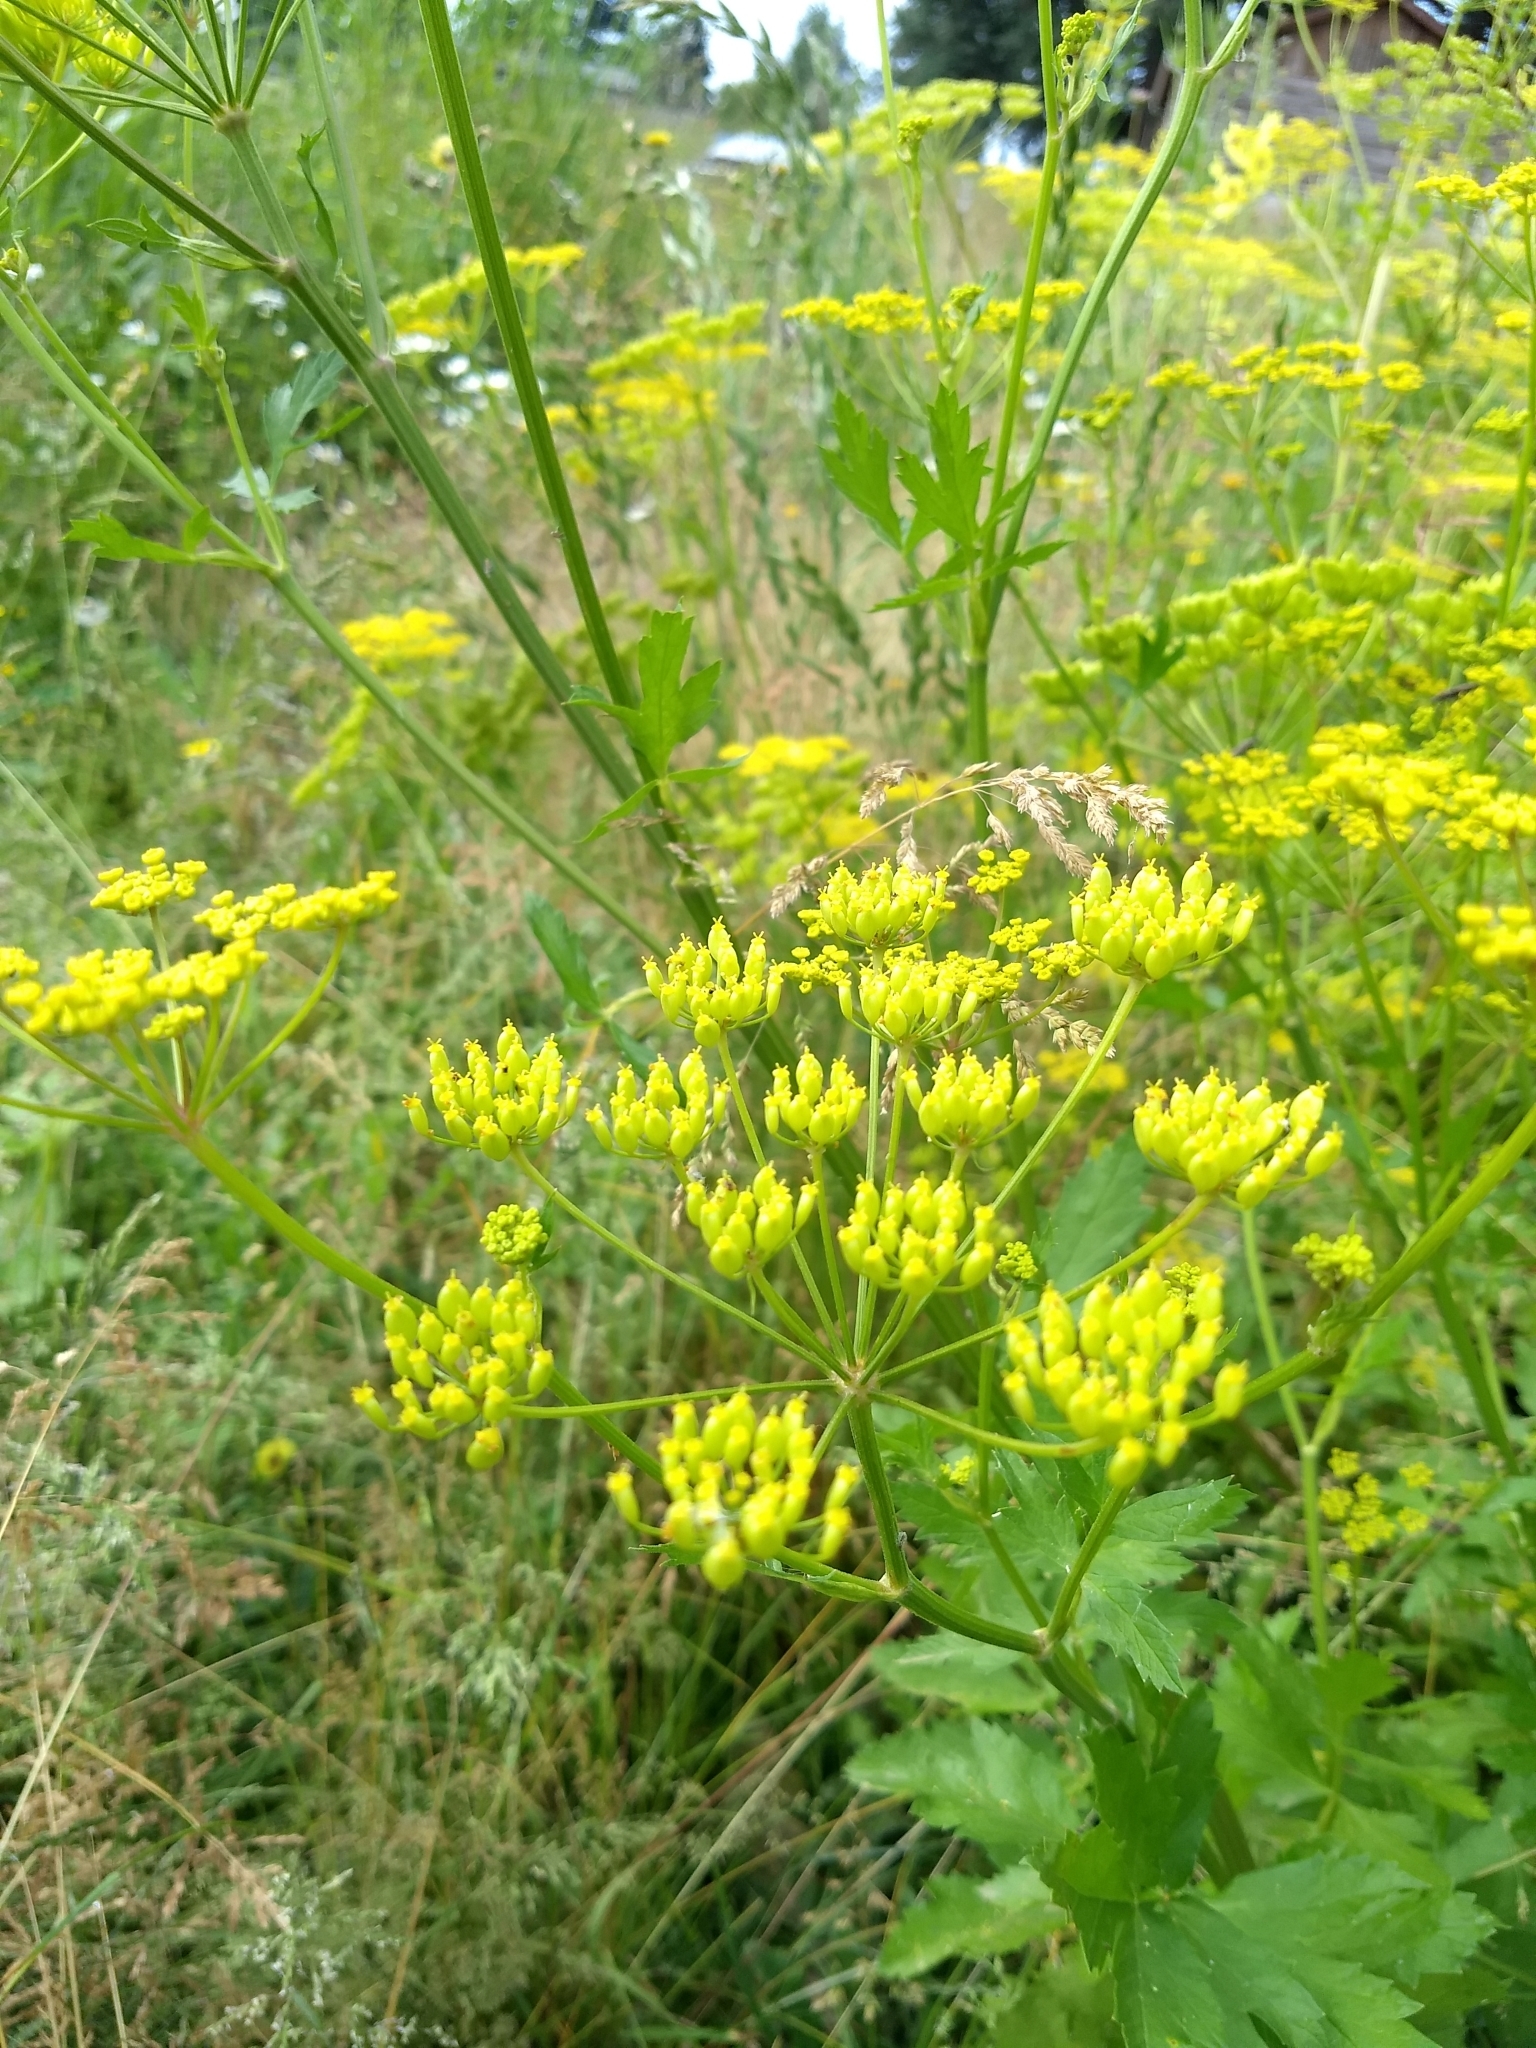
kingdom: Plantae
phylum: Tracheophyta
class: Magnoliopsida
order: Apiales
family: Apiaceae
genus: Pastinaca
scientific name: Pastinaca sativa
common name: Wild parsnip
